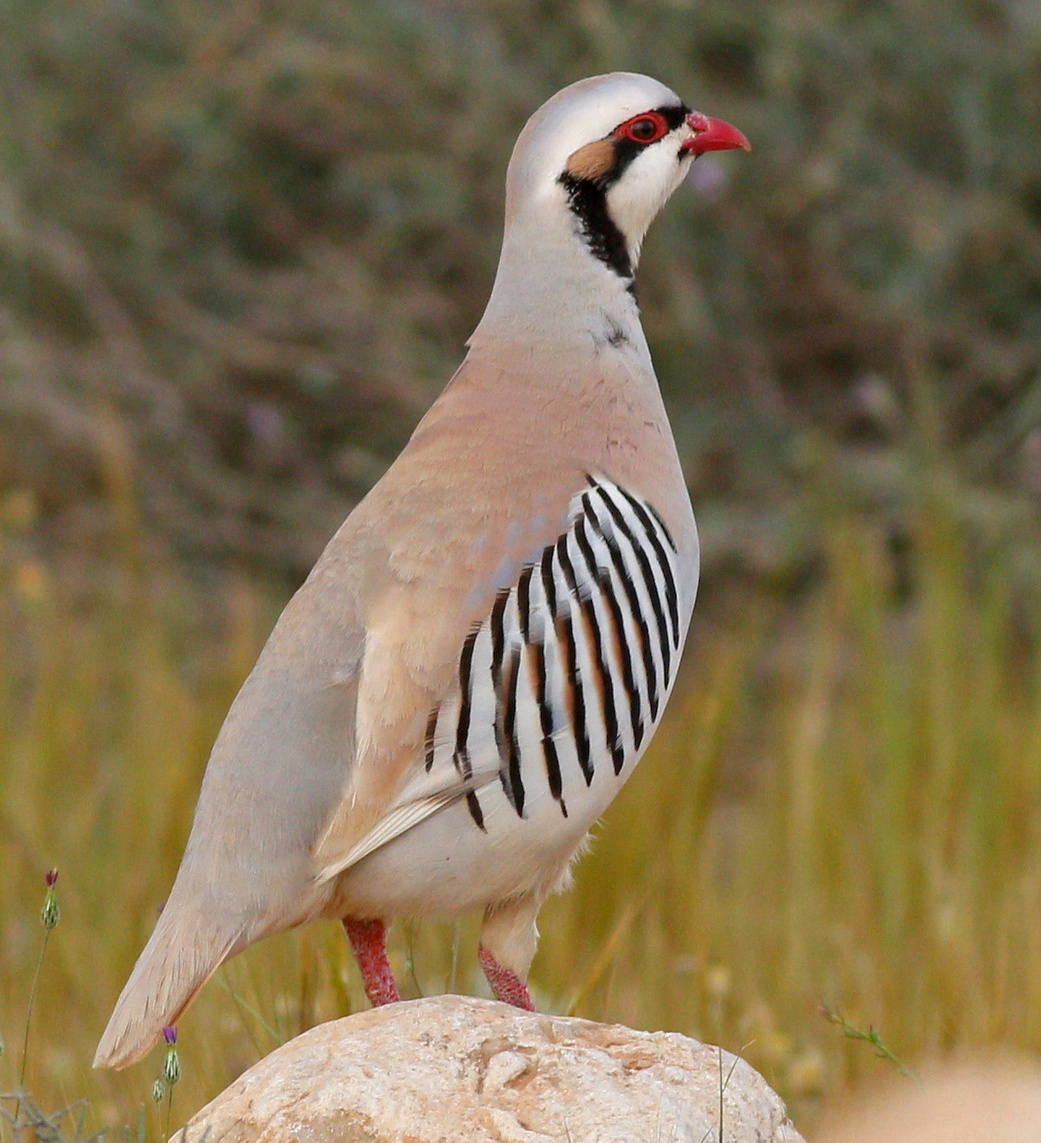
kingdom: Animalia
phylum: Chordata
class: Aves
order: Galliformes
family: Phasianidae
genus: Alectoris
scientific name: Alectoris chukar
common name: Chukar
